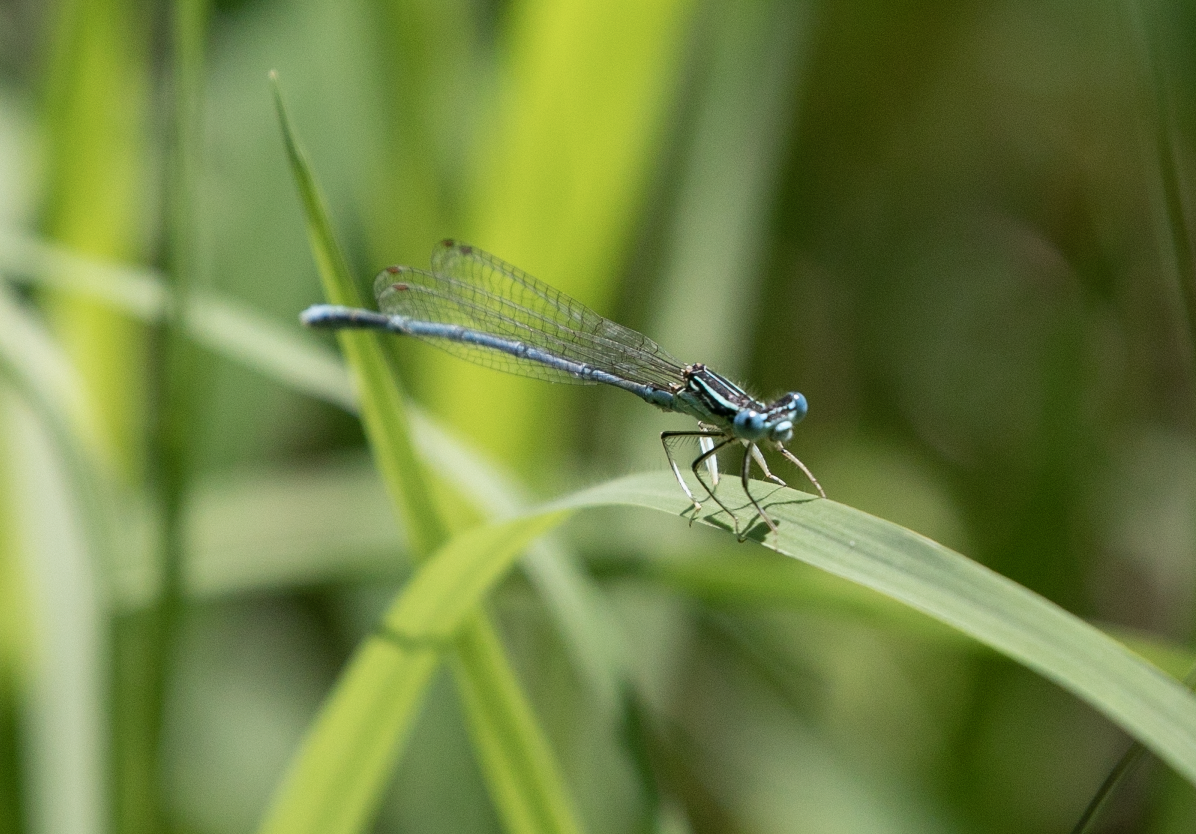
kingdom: Animalia
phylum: Arthropoda
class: Insecta
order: Odonata
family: Platycnemididae
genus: Platycnemis
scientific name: Platycnemis pennipes
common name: White-legged damselfly
